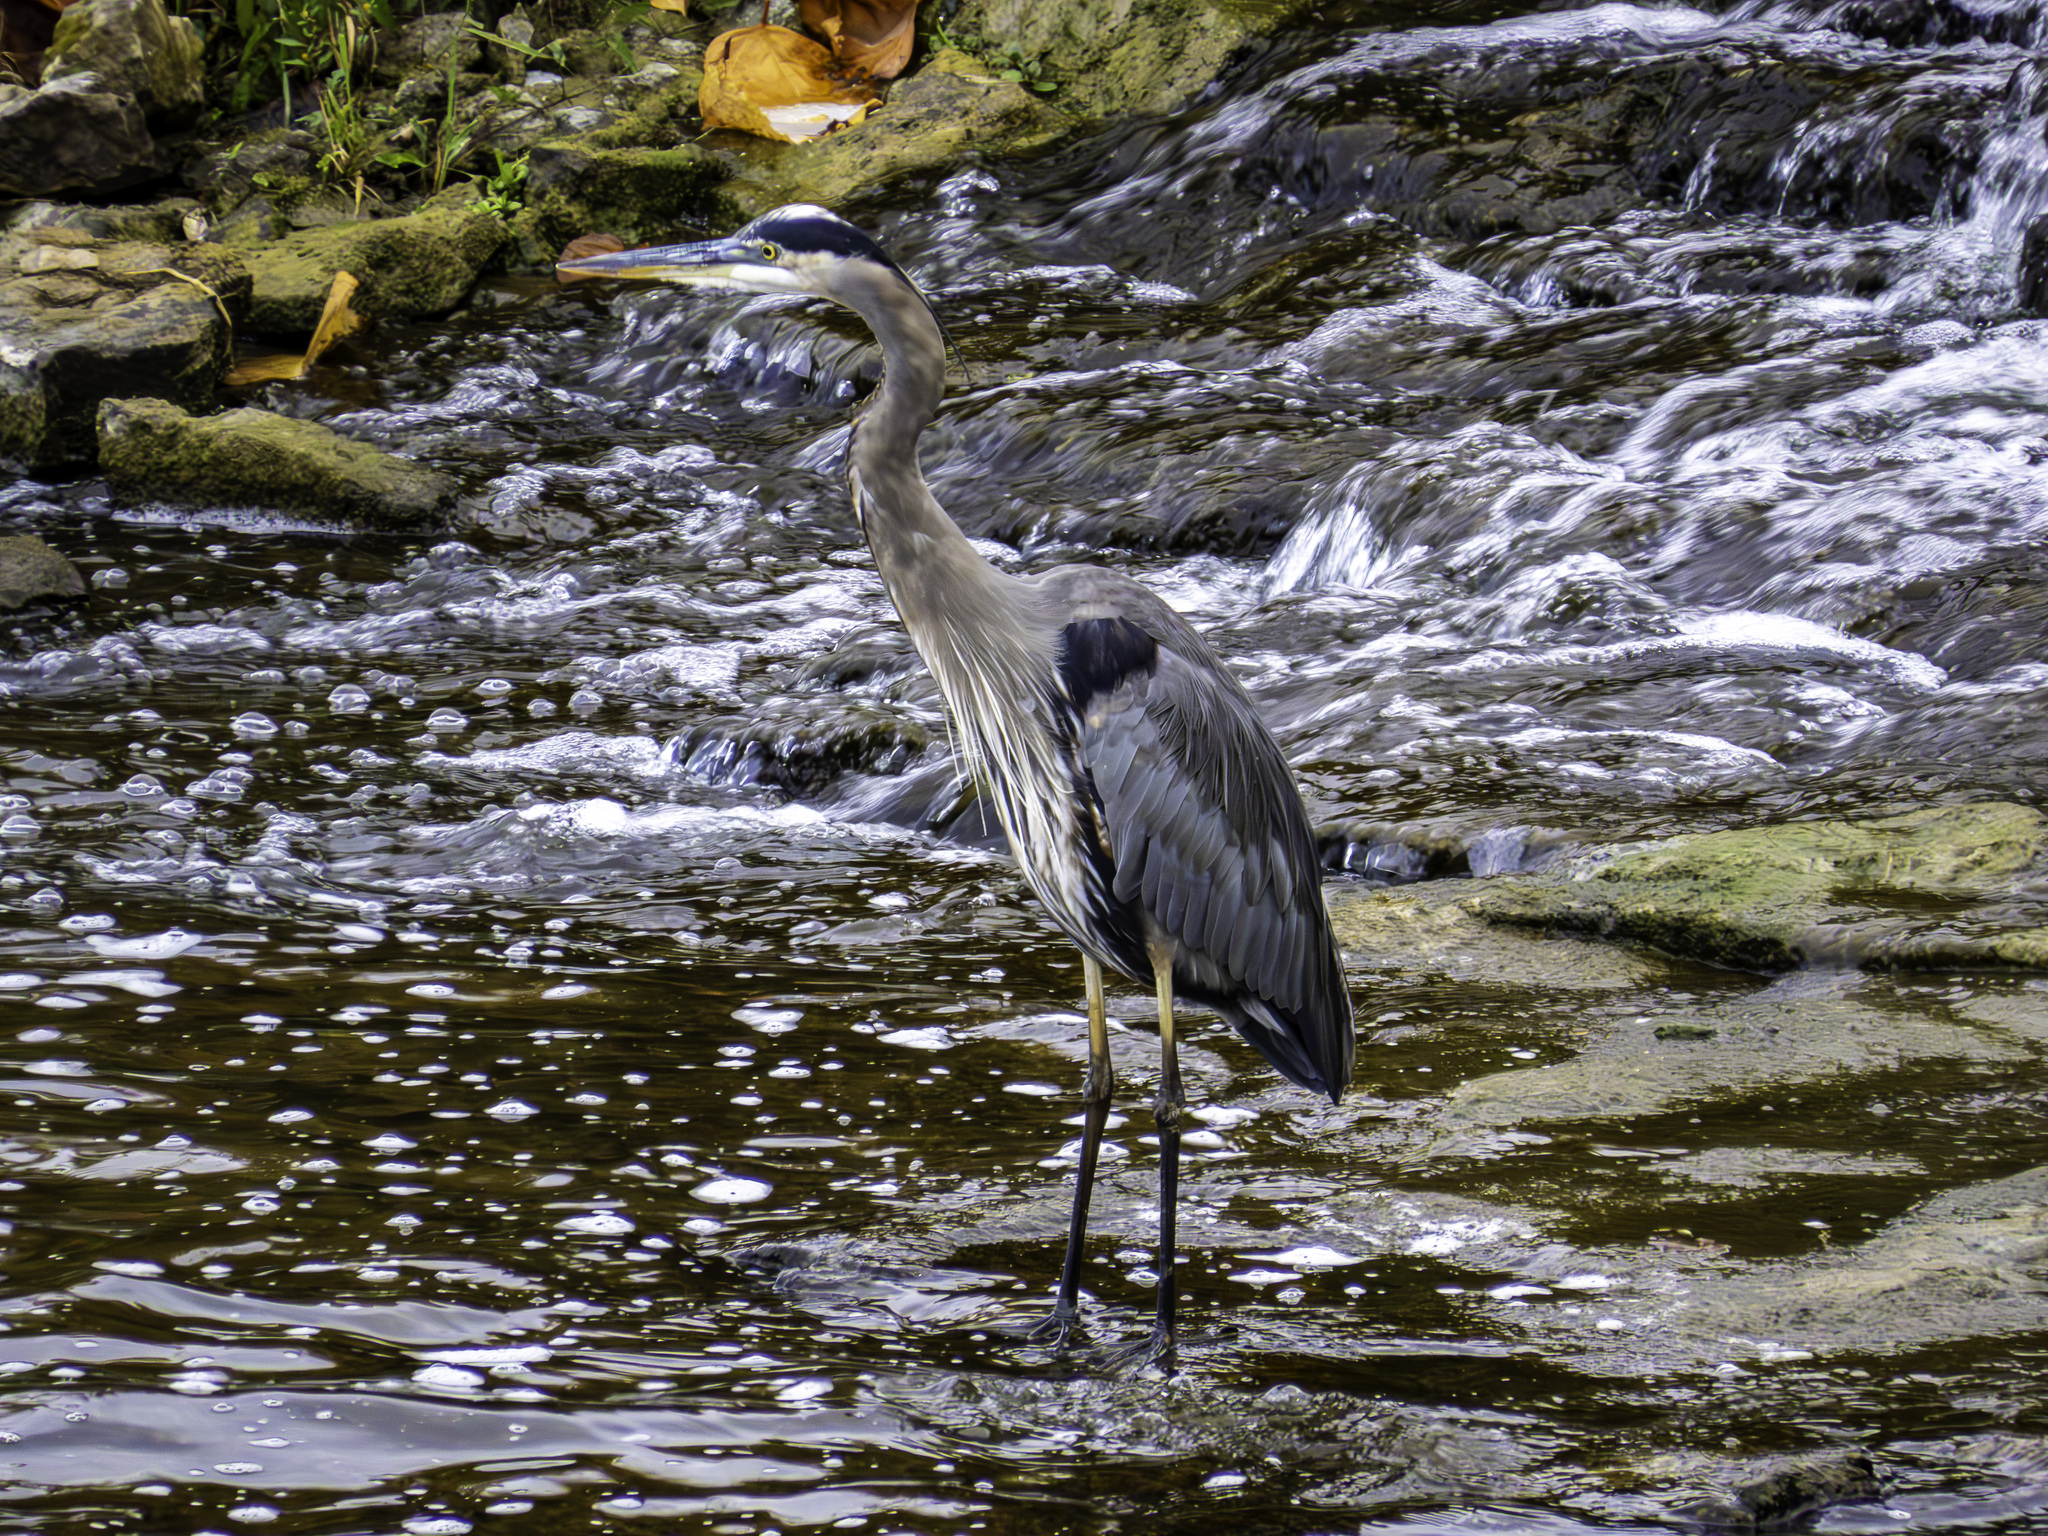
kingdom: Animalia
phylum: Chordata
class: Aves
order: Pelecaniformes
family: Ardeidae
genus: Ardea
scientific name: Ardea herodias
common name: Great blue heron
